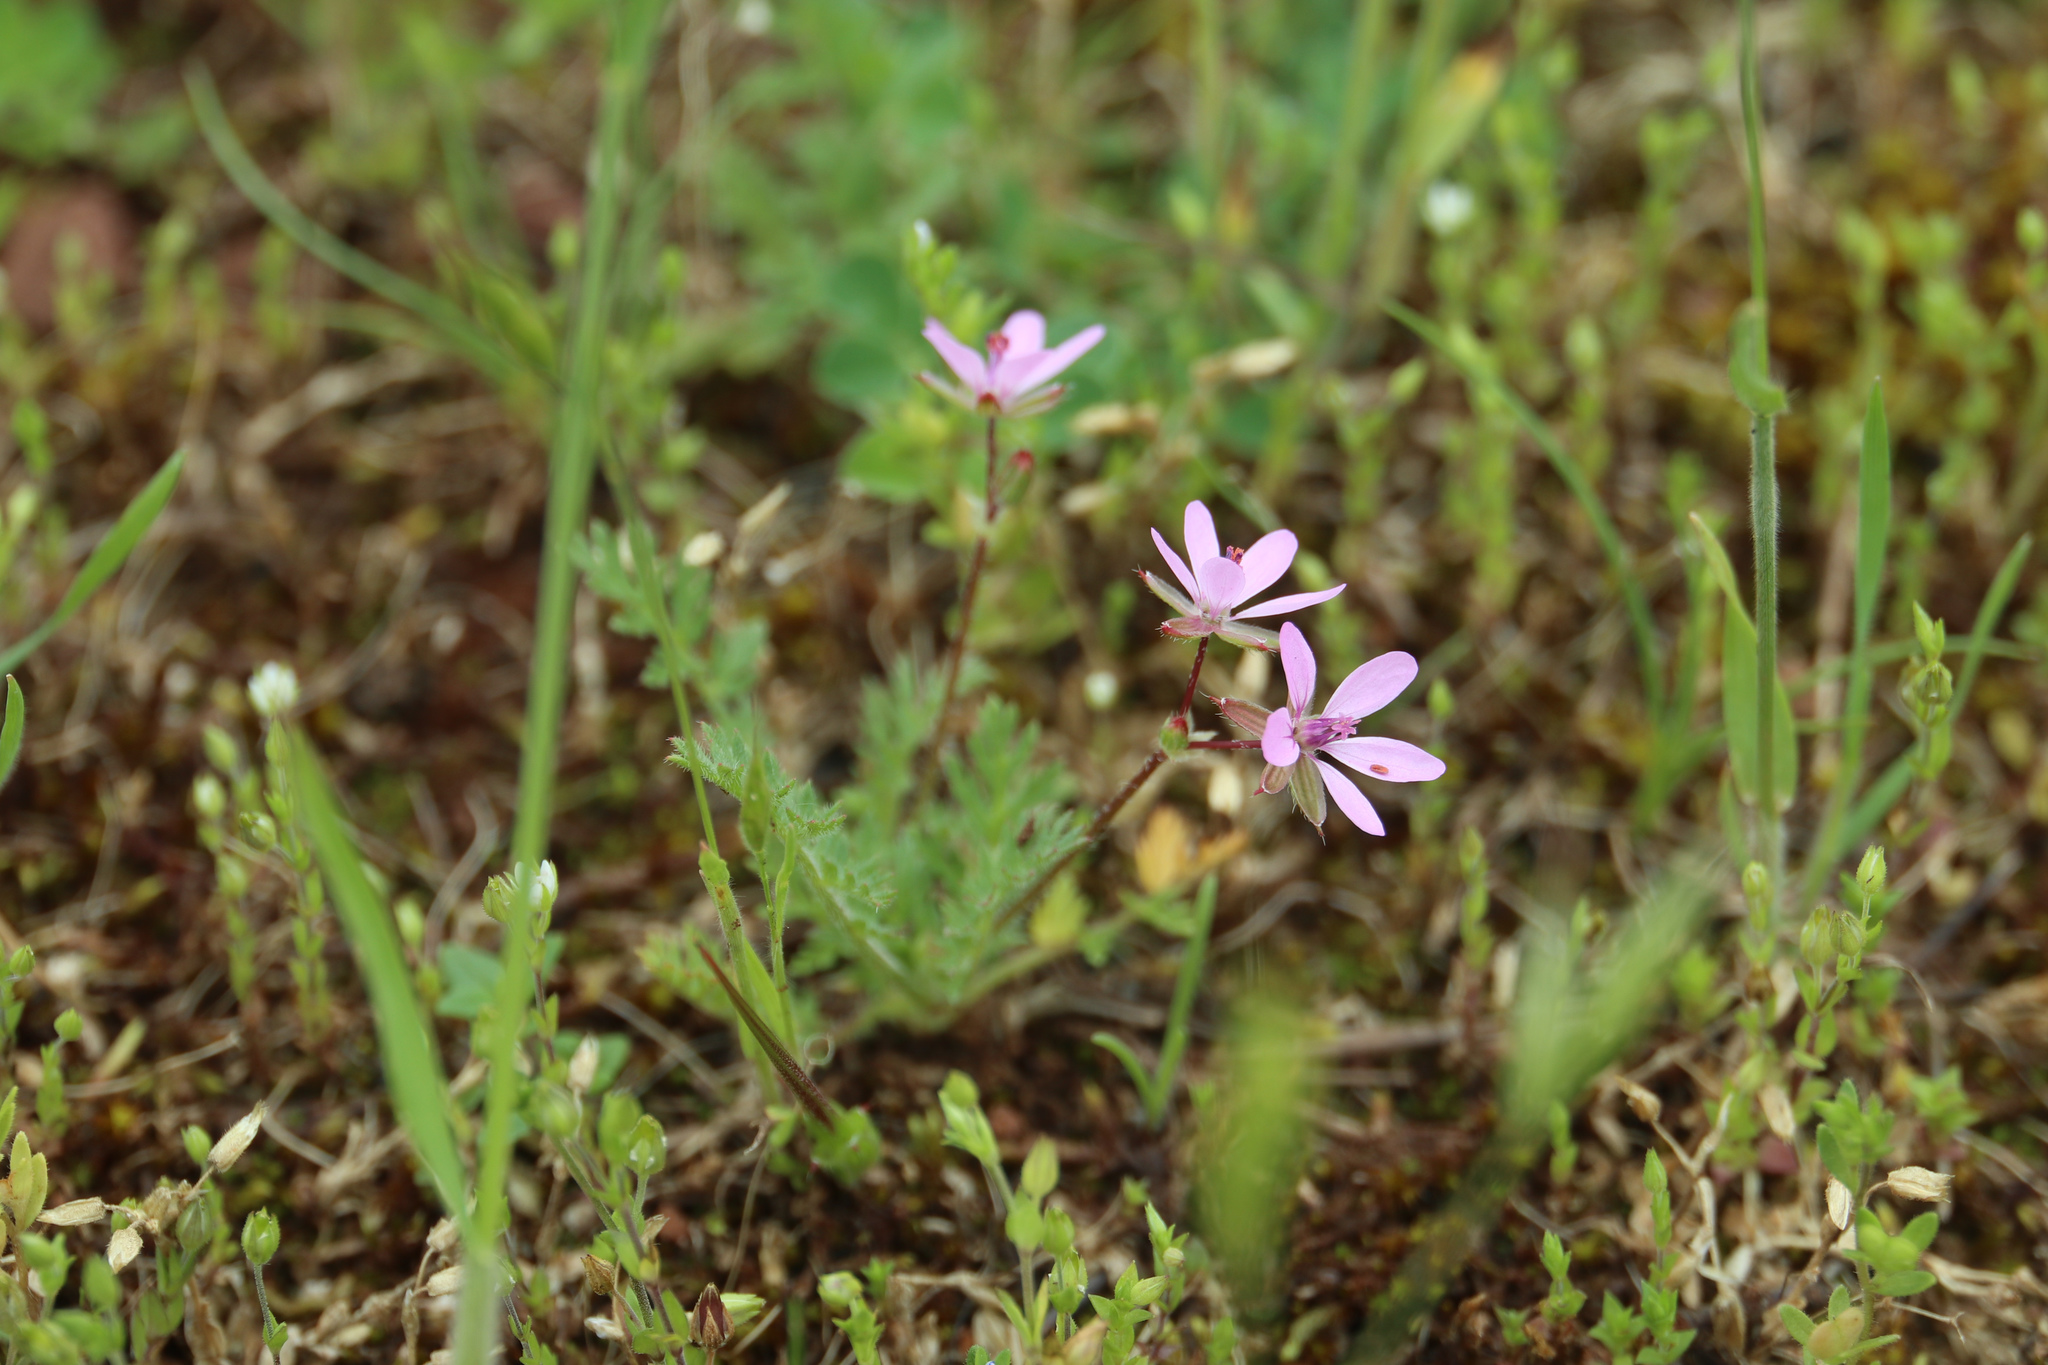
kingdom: Plantae
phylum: Tracheophyta
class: Magnoliopsida
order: Geraniales
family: Geraniaceae
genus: Erodium
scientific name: Erodium cicutarium
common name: Common stork's-bill
